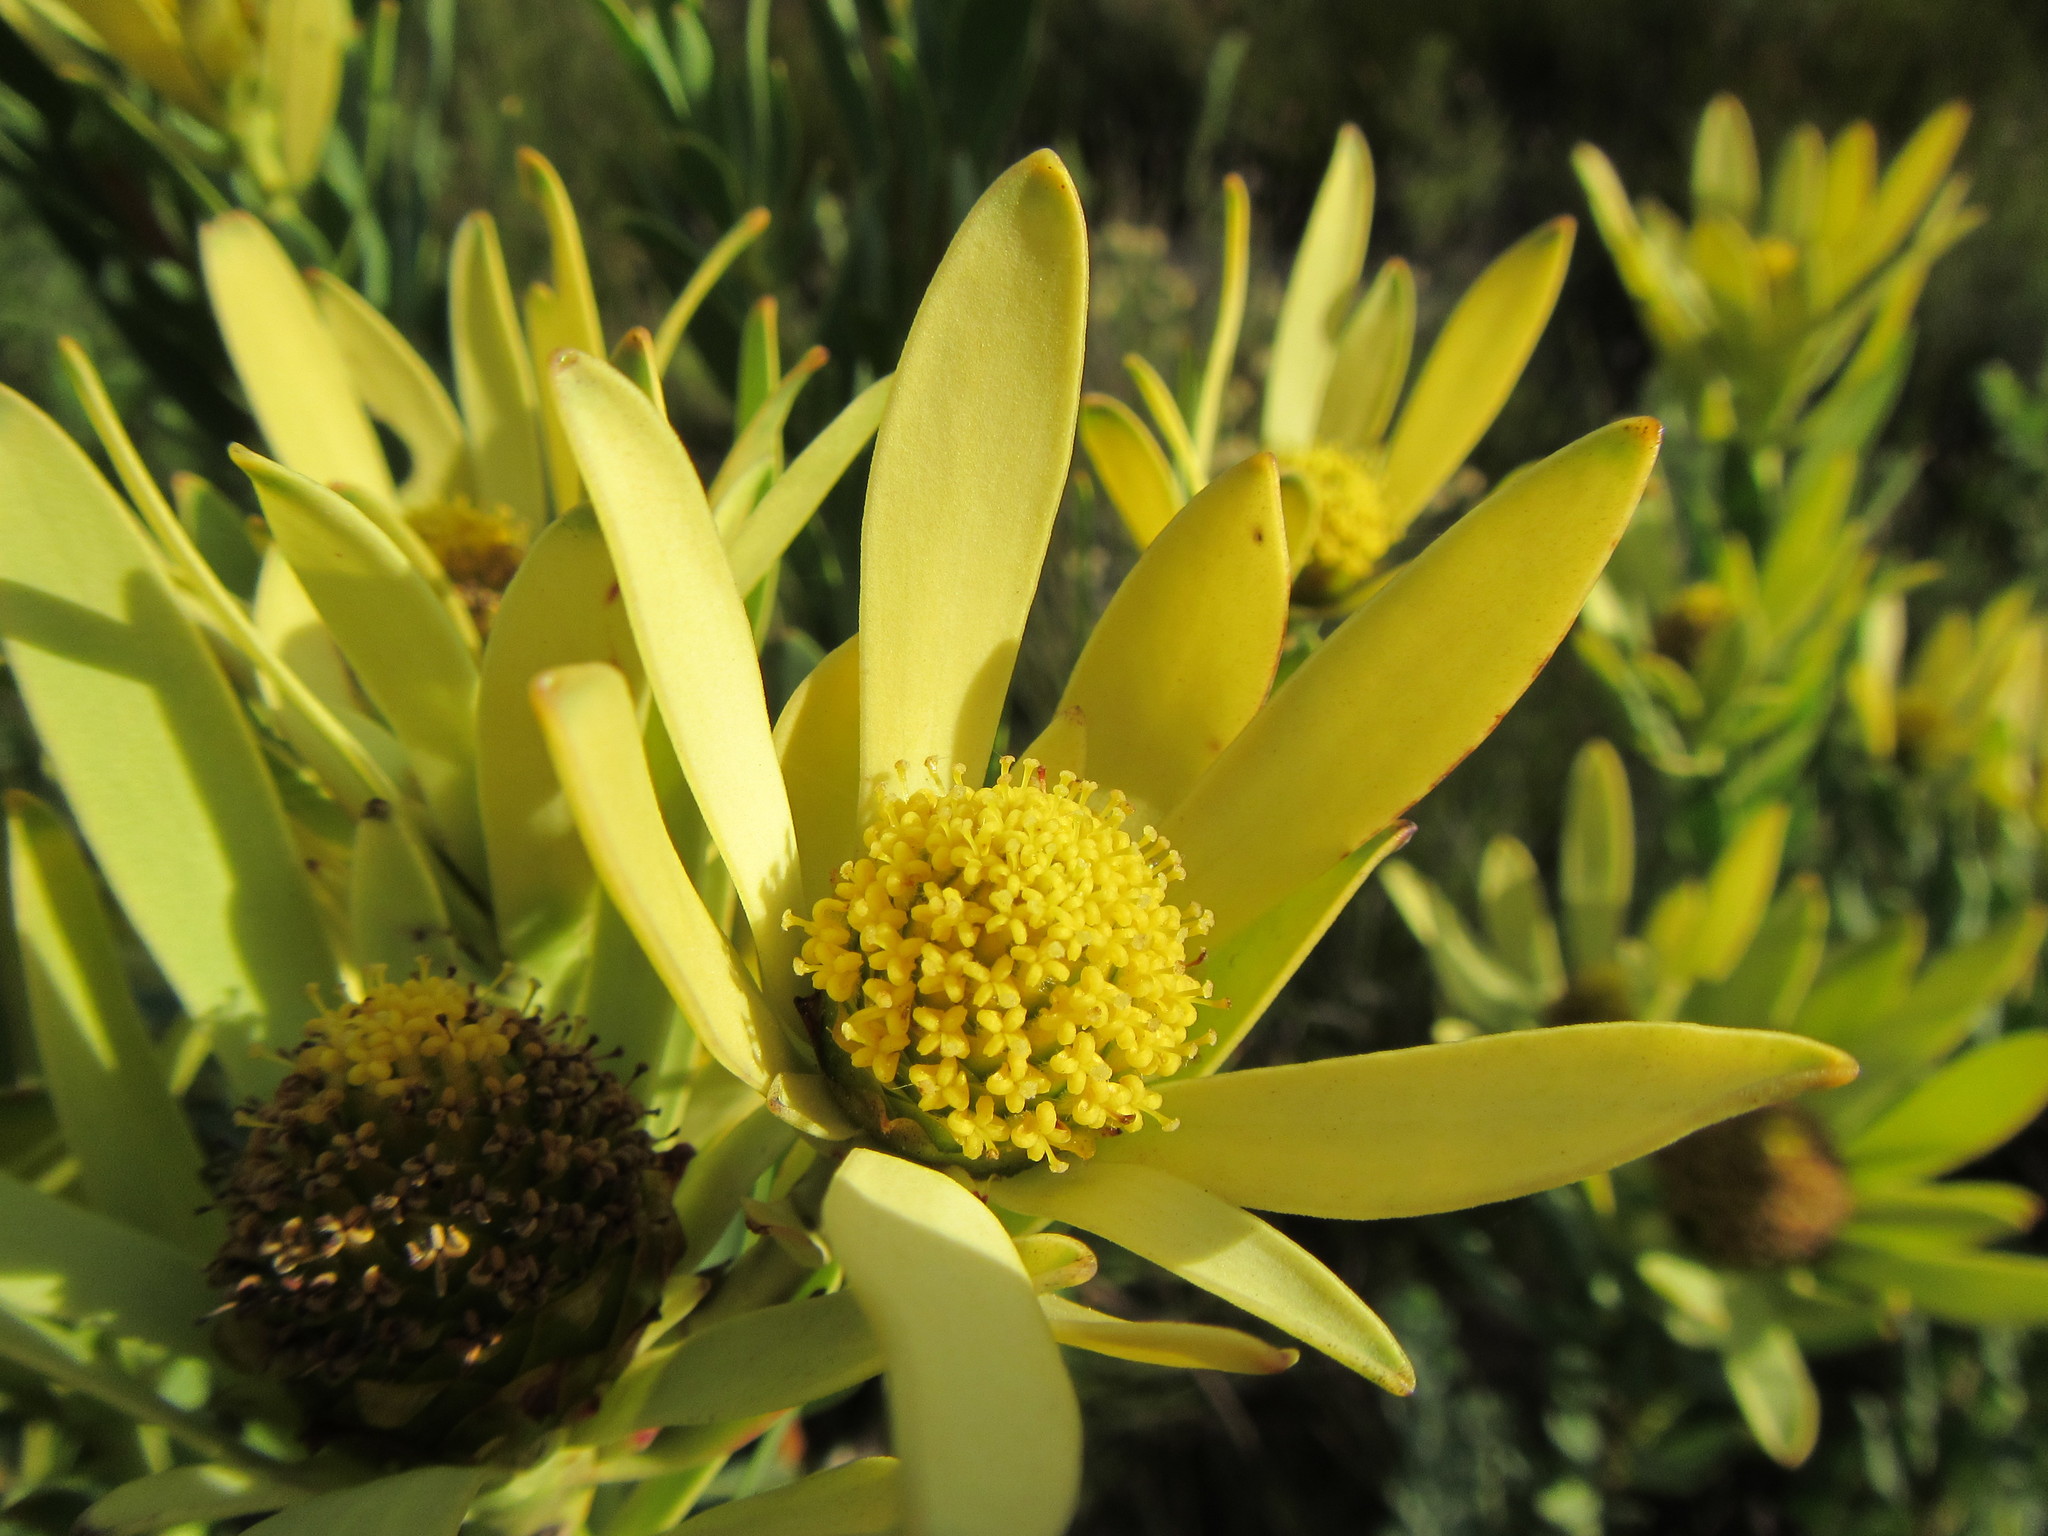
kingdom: Plantae
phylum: Tracheophyta
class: Magnoliopsida
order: Proteales
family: Proteaceae
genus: Leucadendron
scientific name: Leucadendron elimense
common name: Elim conebush
